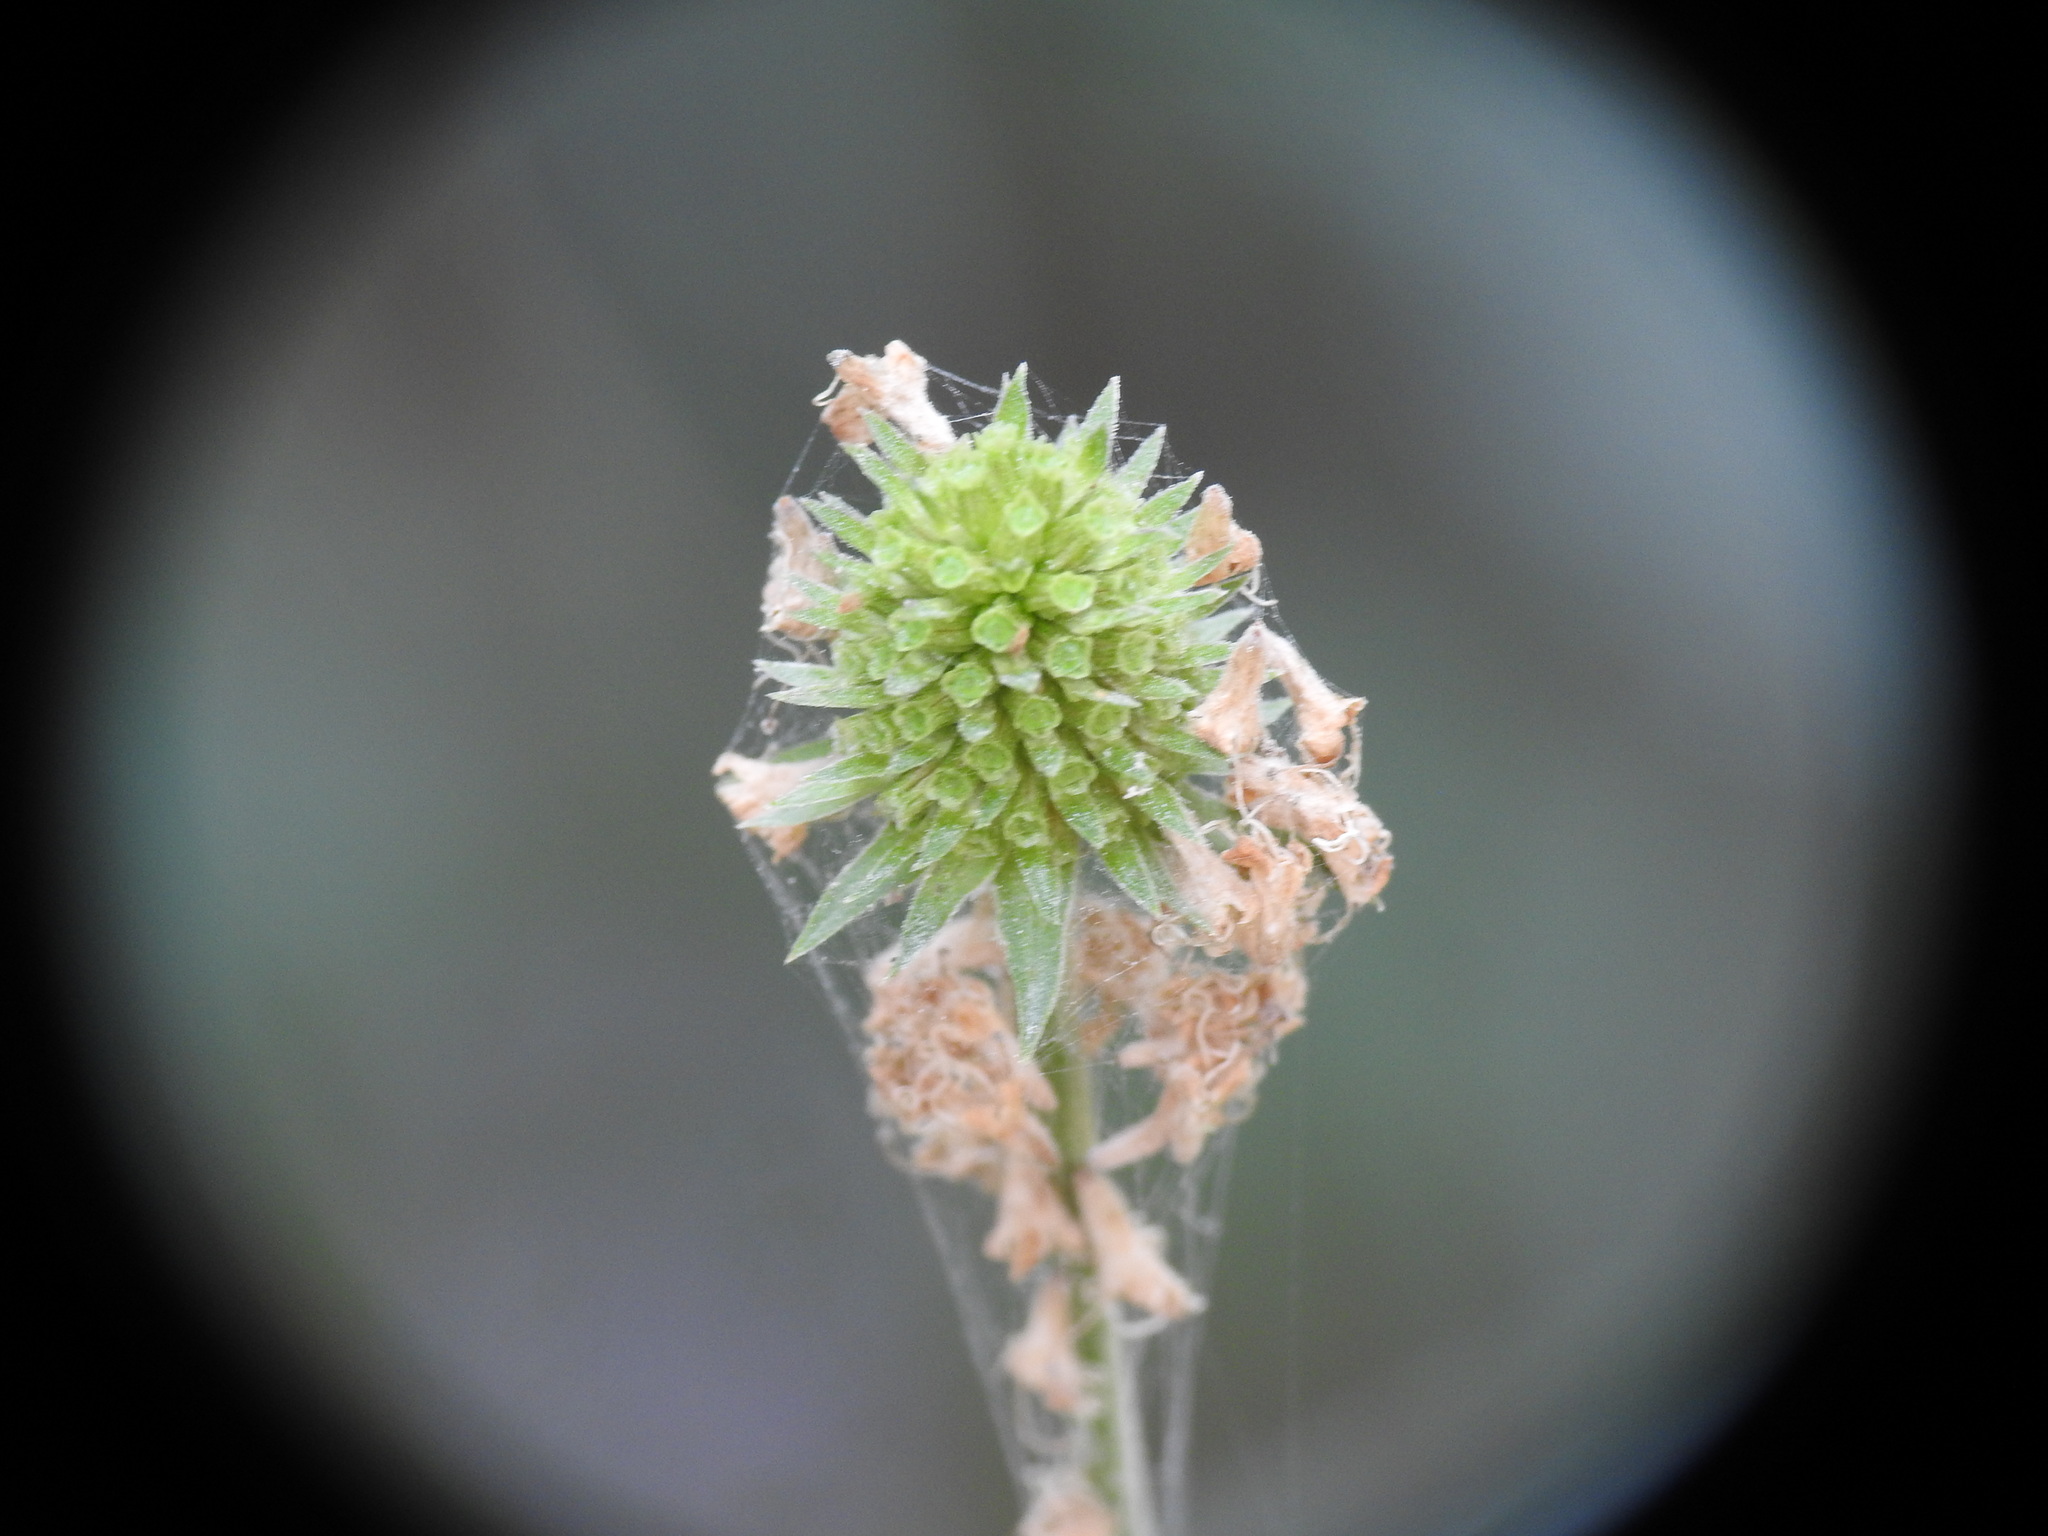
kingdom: Plantae
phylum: Tracheophyta
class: Magnoliopsida
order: Dipsacales
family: Caprifoliaceae
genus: Succisella
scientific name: Succisella inflexa
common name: Southern succisella
